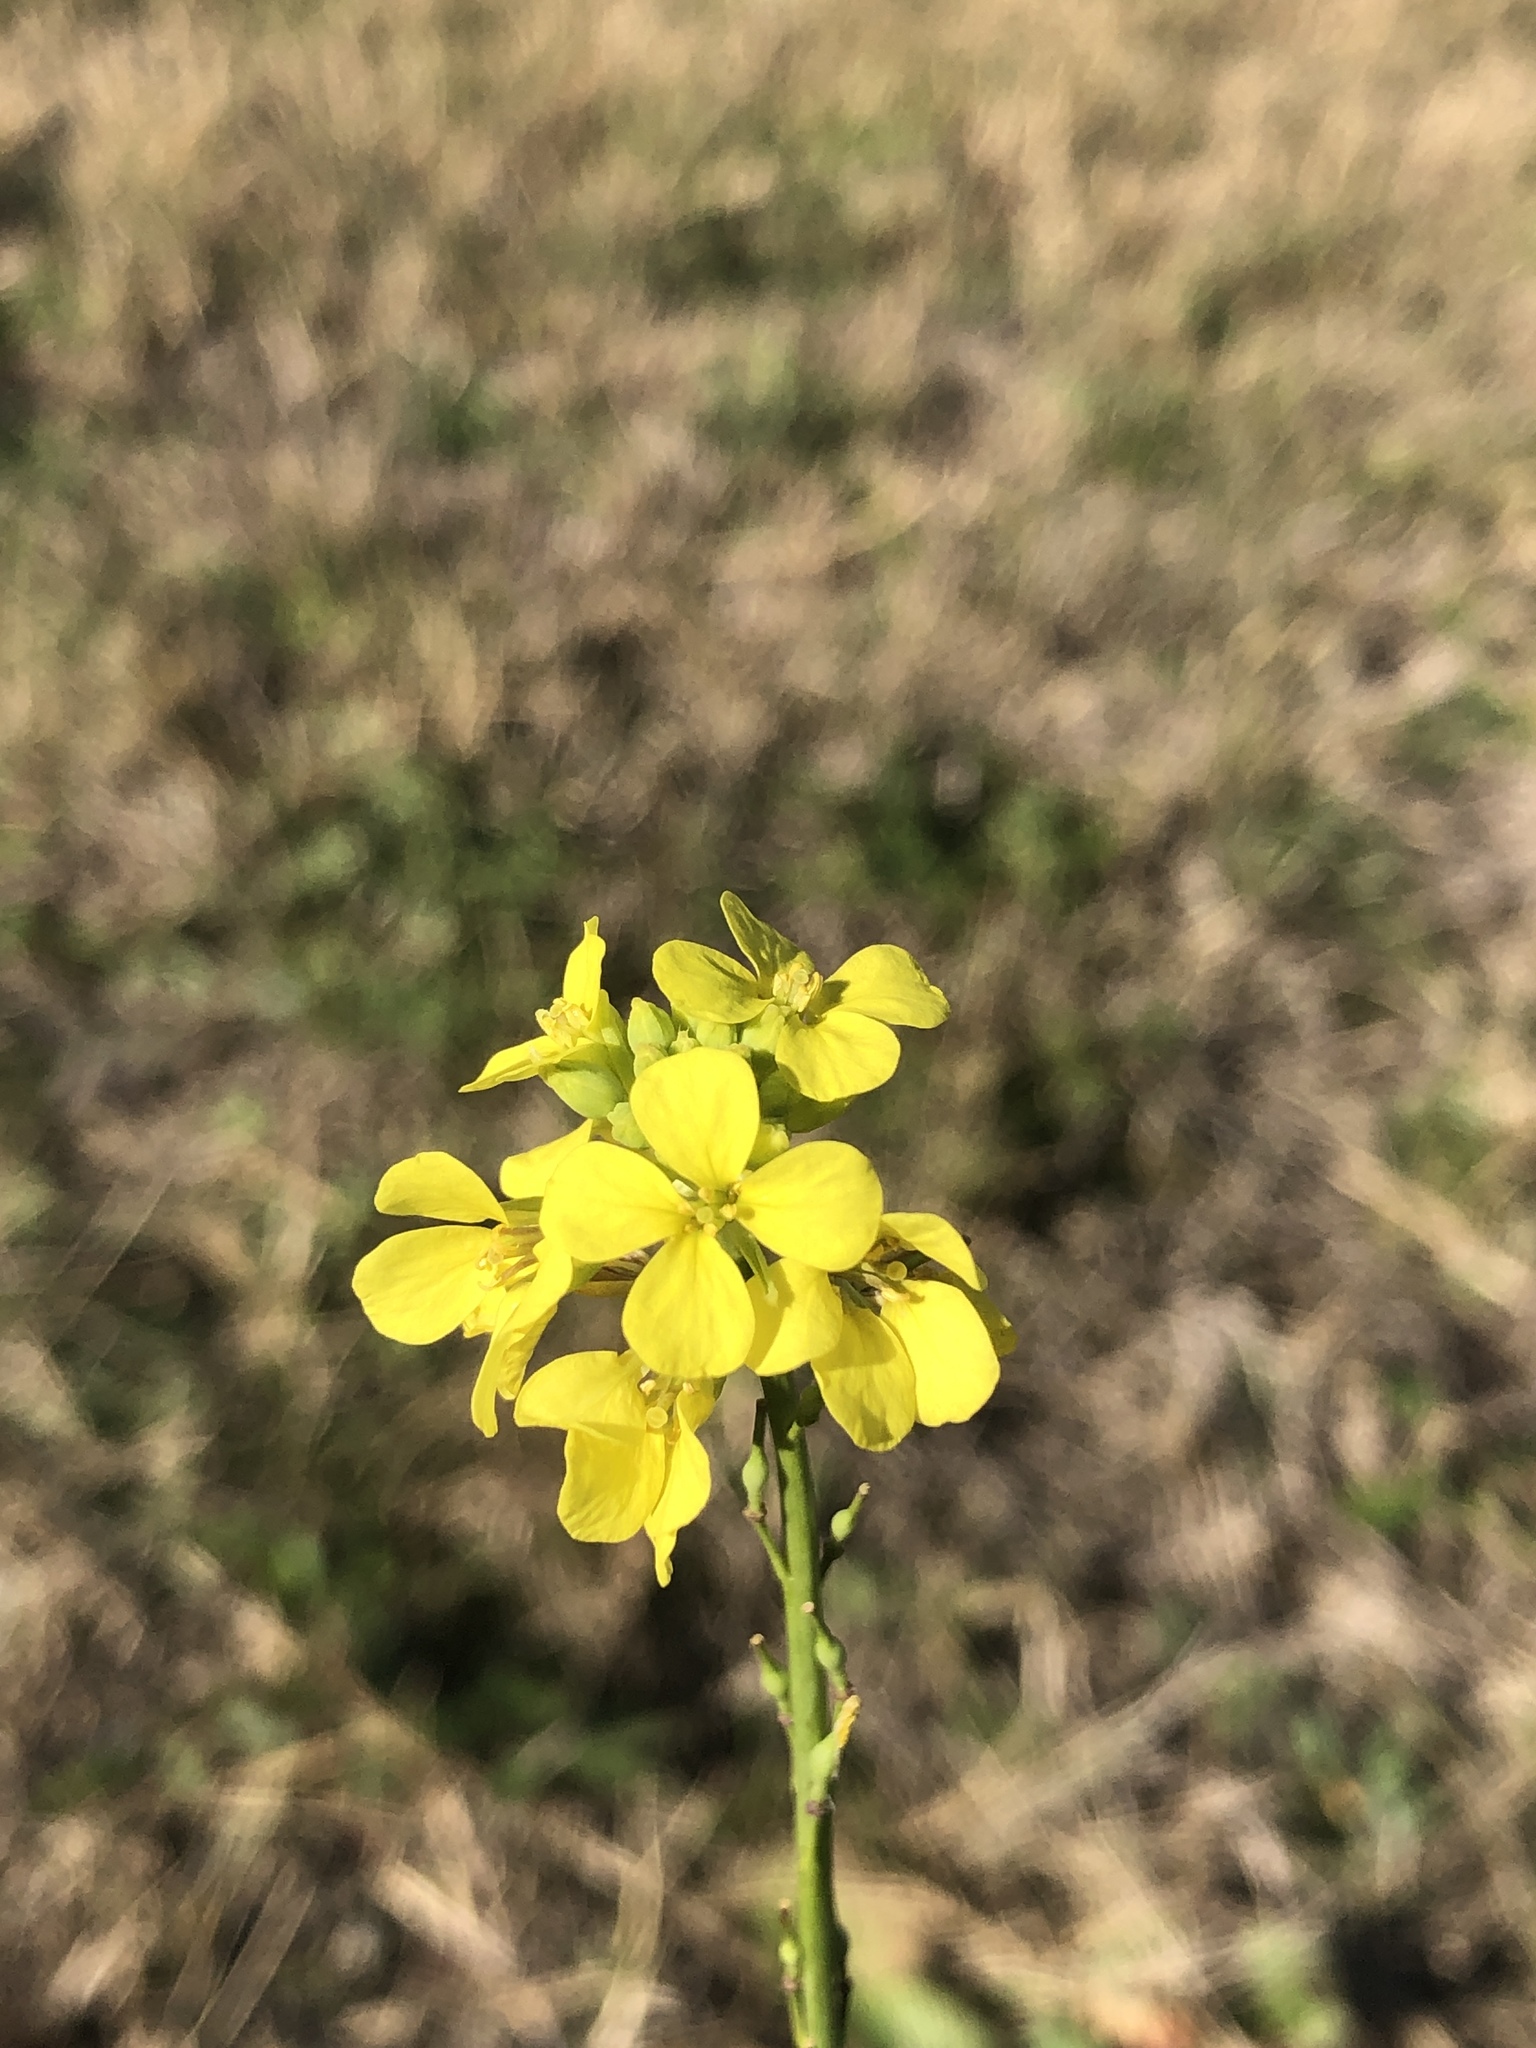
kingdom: Plantae
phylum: Tracheophyta
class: Magnoliopsida
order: Brassicales
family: Brassicaceae
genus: Rapistrum
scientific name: Rapistrum rugosum
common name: Annual bastardcabbage
